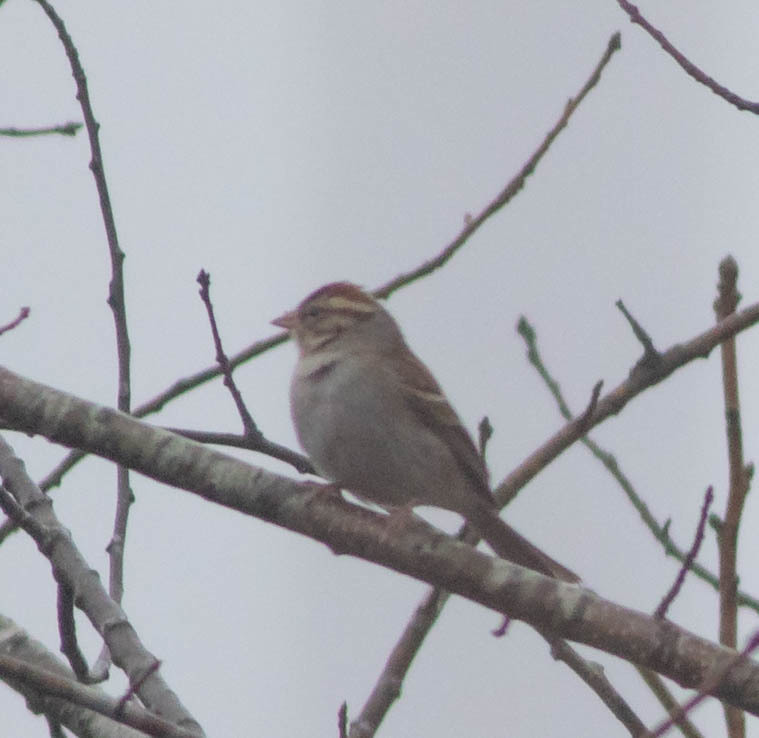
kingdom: Animalia
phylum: Chordata
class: Aves
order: Passeriformes
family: Passerellidae
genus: Spizella
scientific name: Spizella passerina
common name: Chipping sparrow
